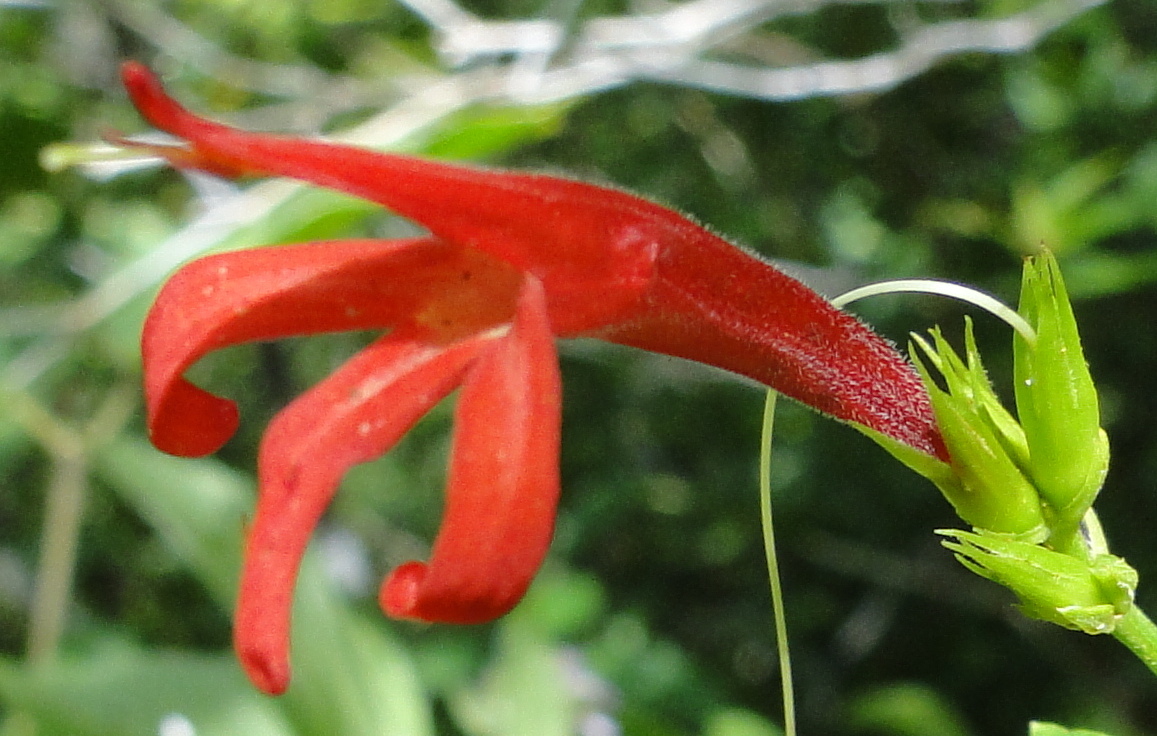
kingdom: Plantae
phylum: Tracheophyta
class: Magnoliopsida
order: Lamiales
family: Acanthaceae
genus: Justicia
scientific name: Justicia gonzalezii
